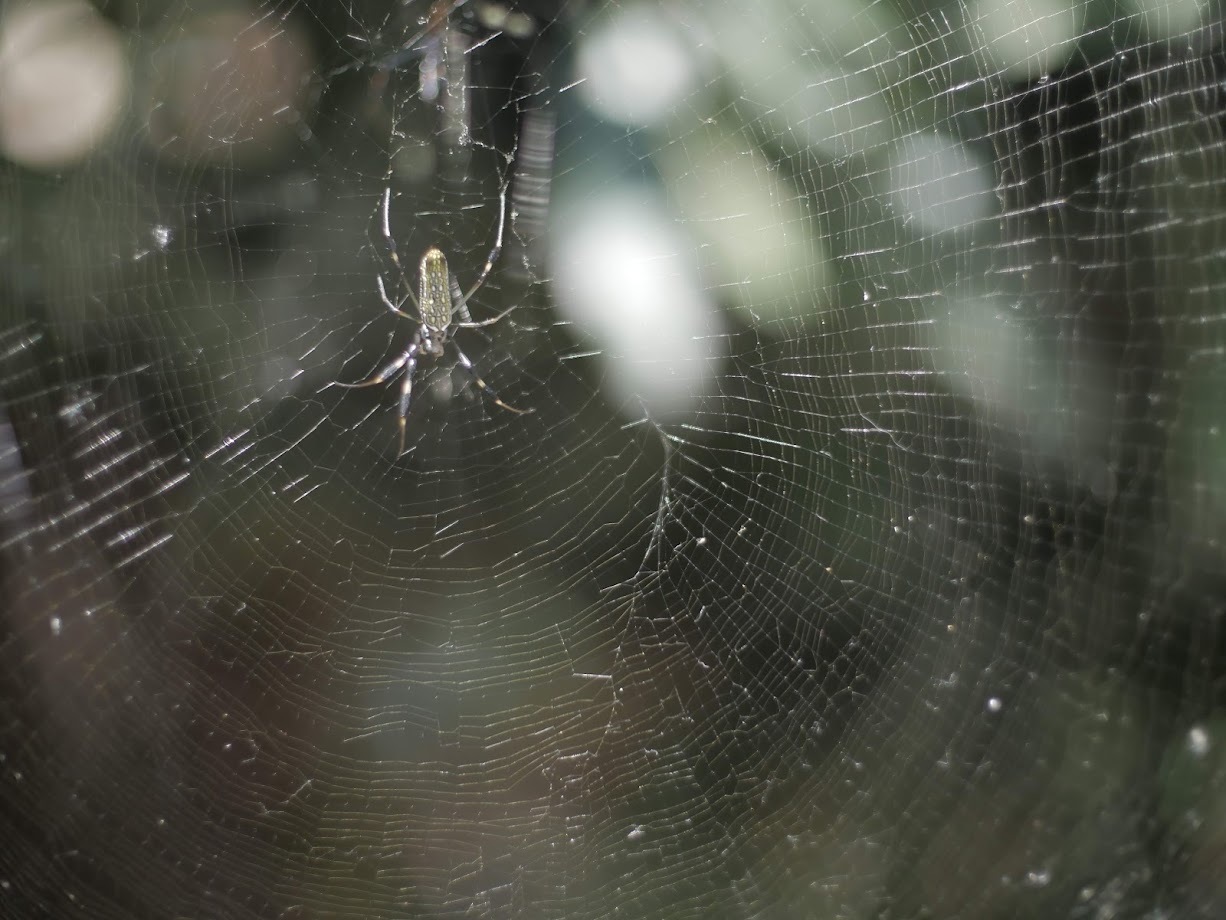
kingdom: Animalia
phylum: Arthropoda
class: Arachnida
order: Araneae
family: Araneidae
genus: Trichonephila
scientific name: Trichonephila clavipes
